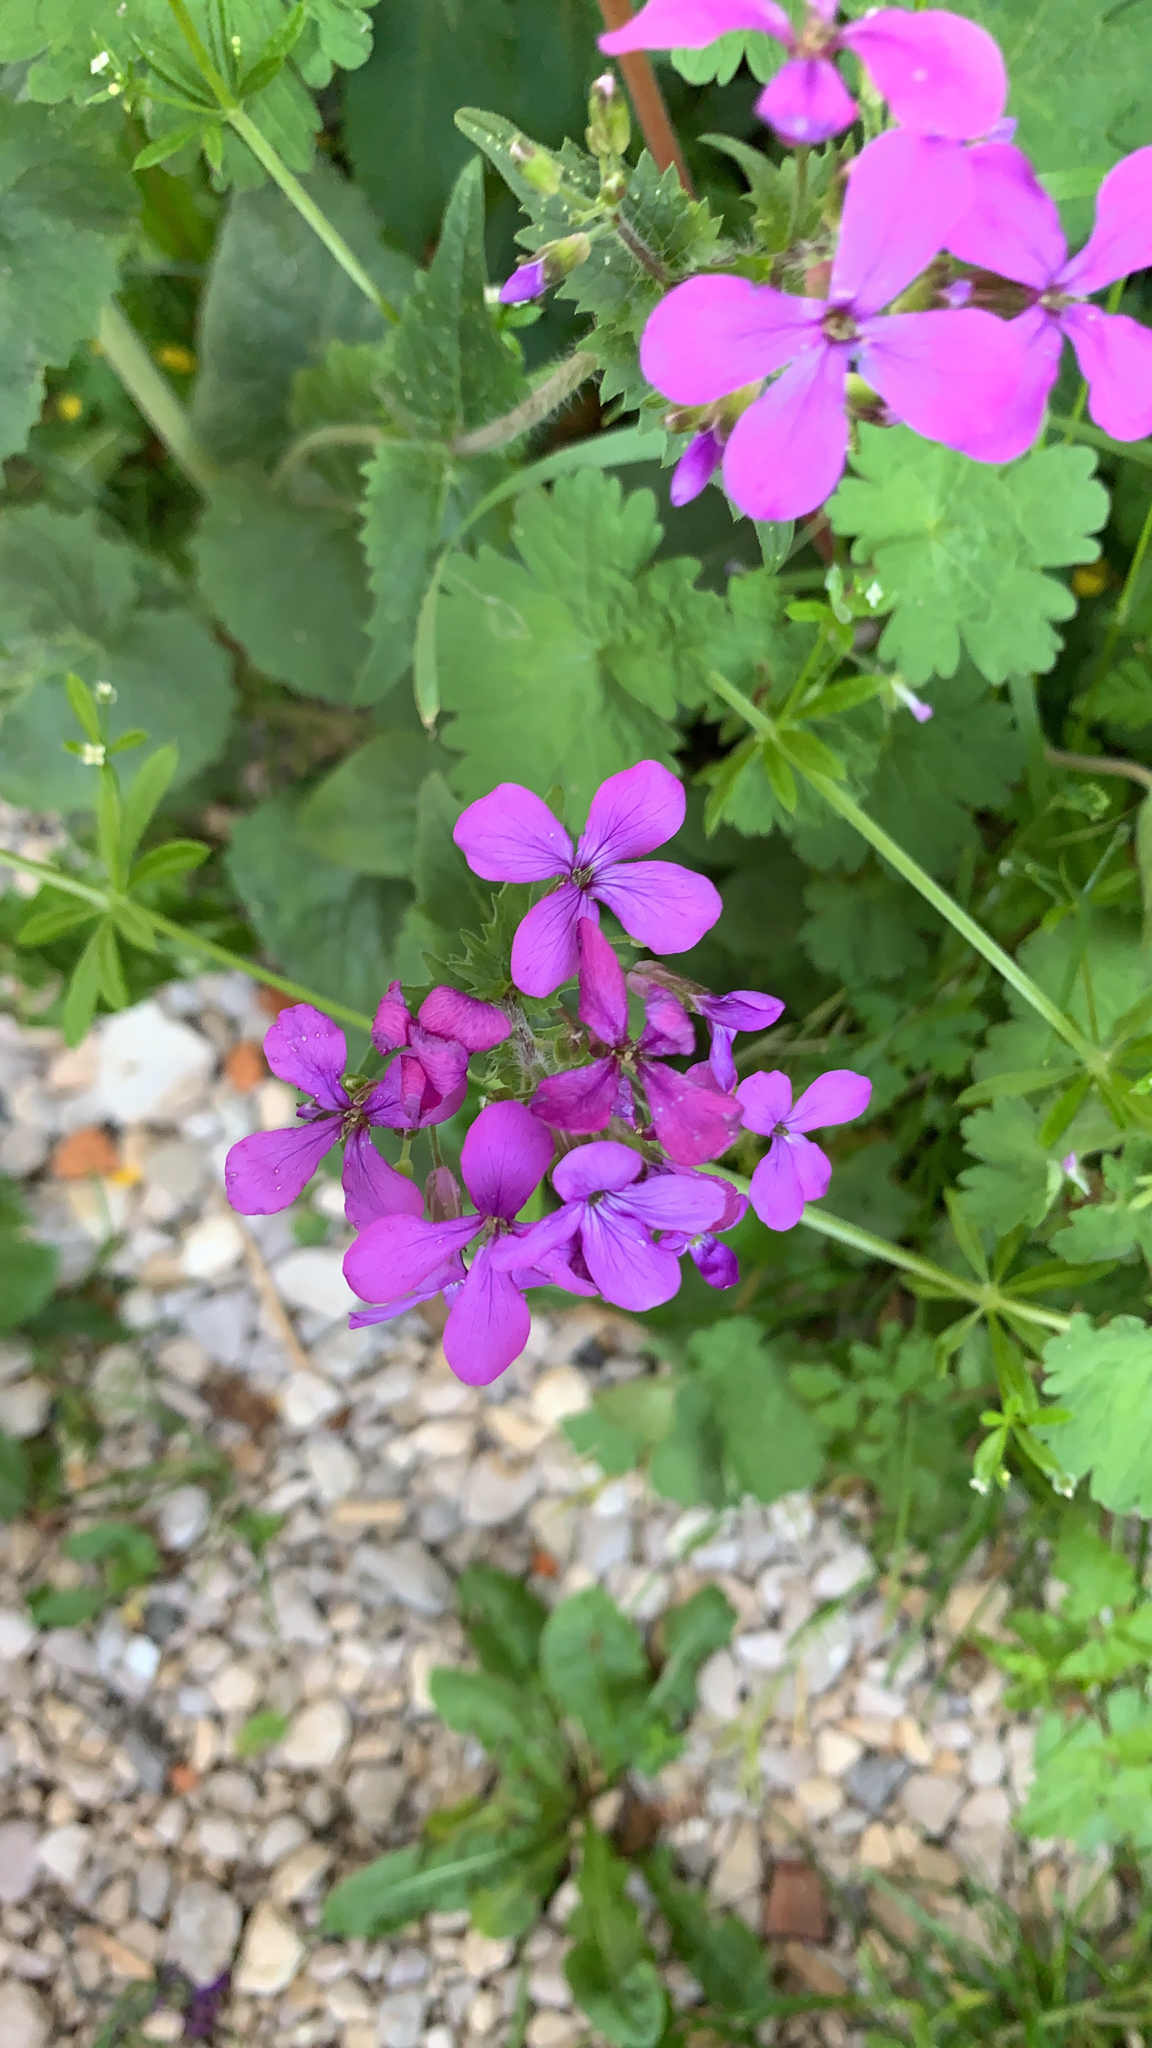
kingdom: Plantae
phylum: Tracheophyta
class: Magnoliopsida
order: Brassicales
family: Brassicaceae
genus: Lunaria
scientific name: Lunaria annua
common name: Honesty
